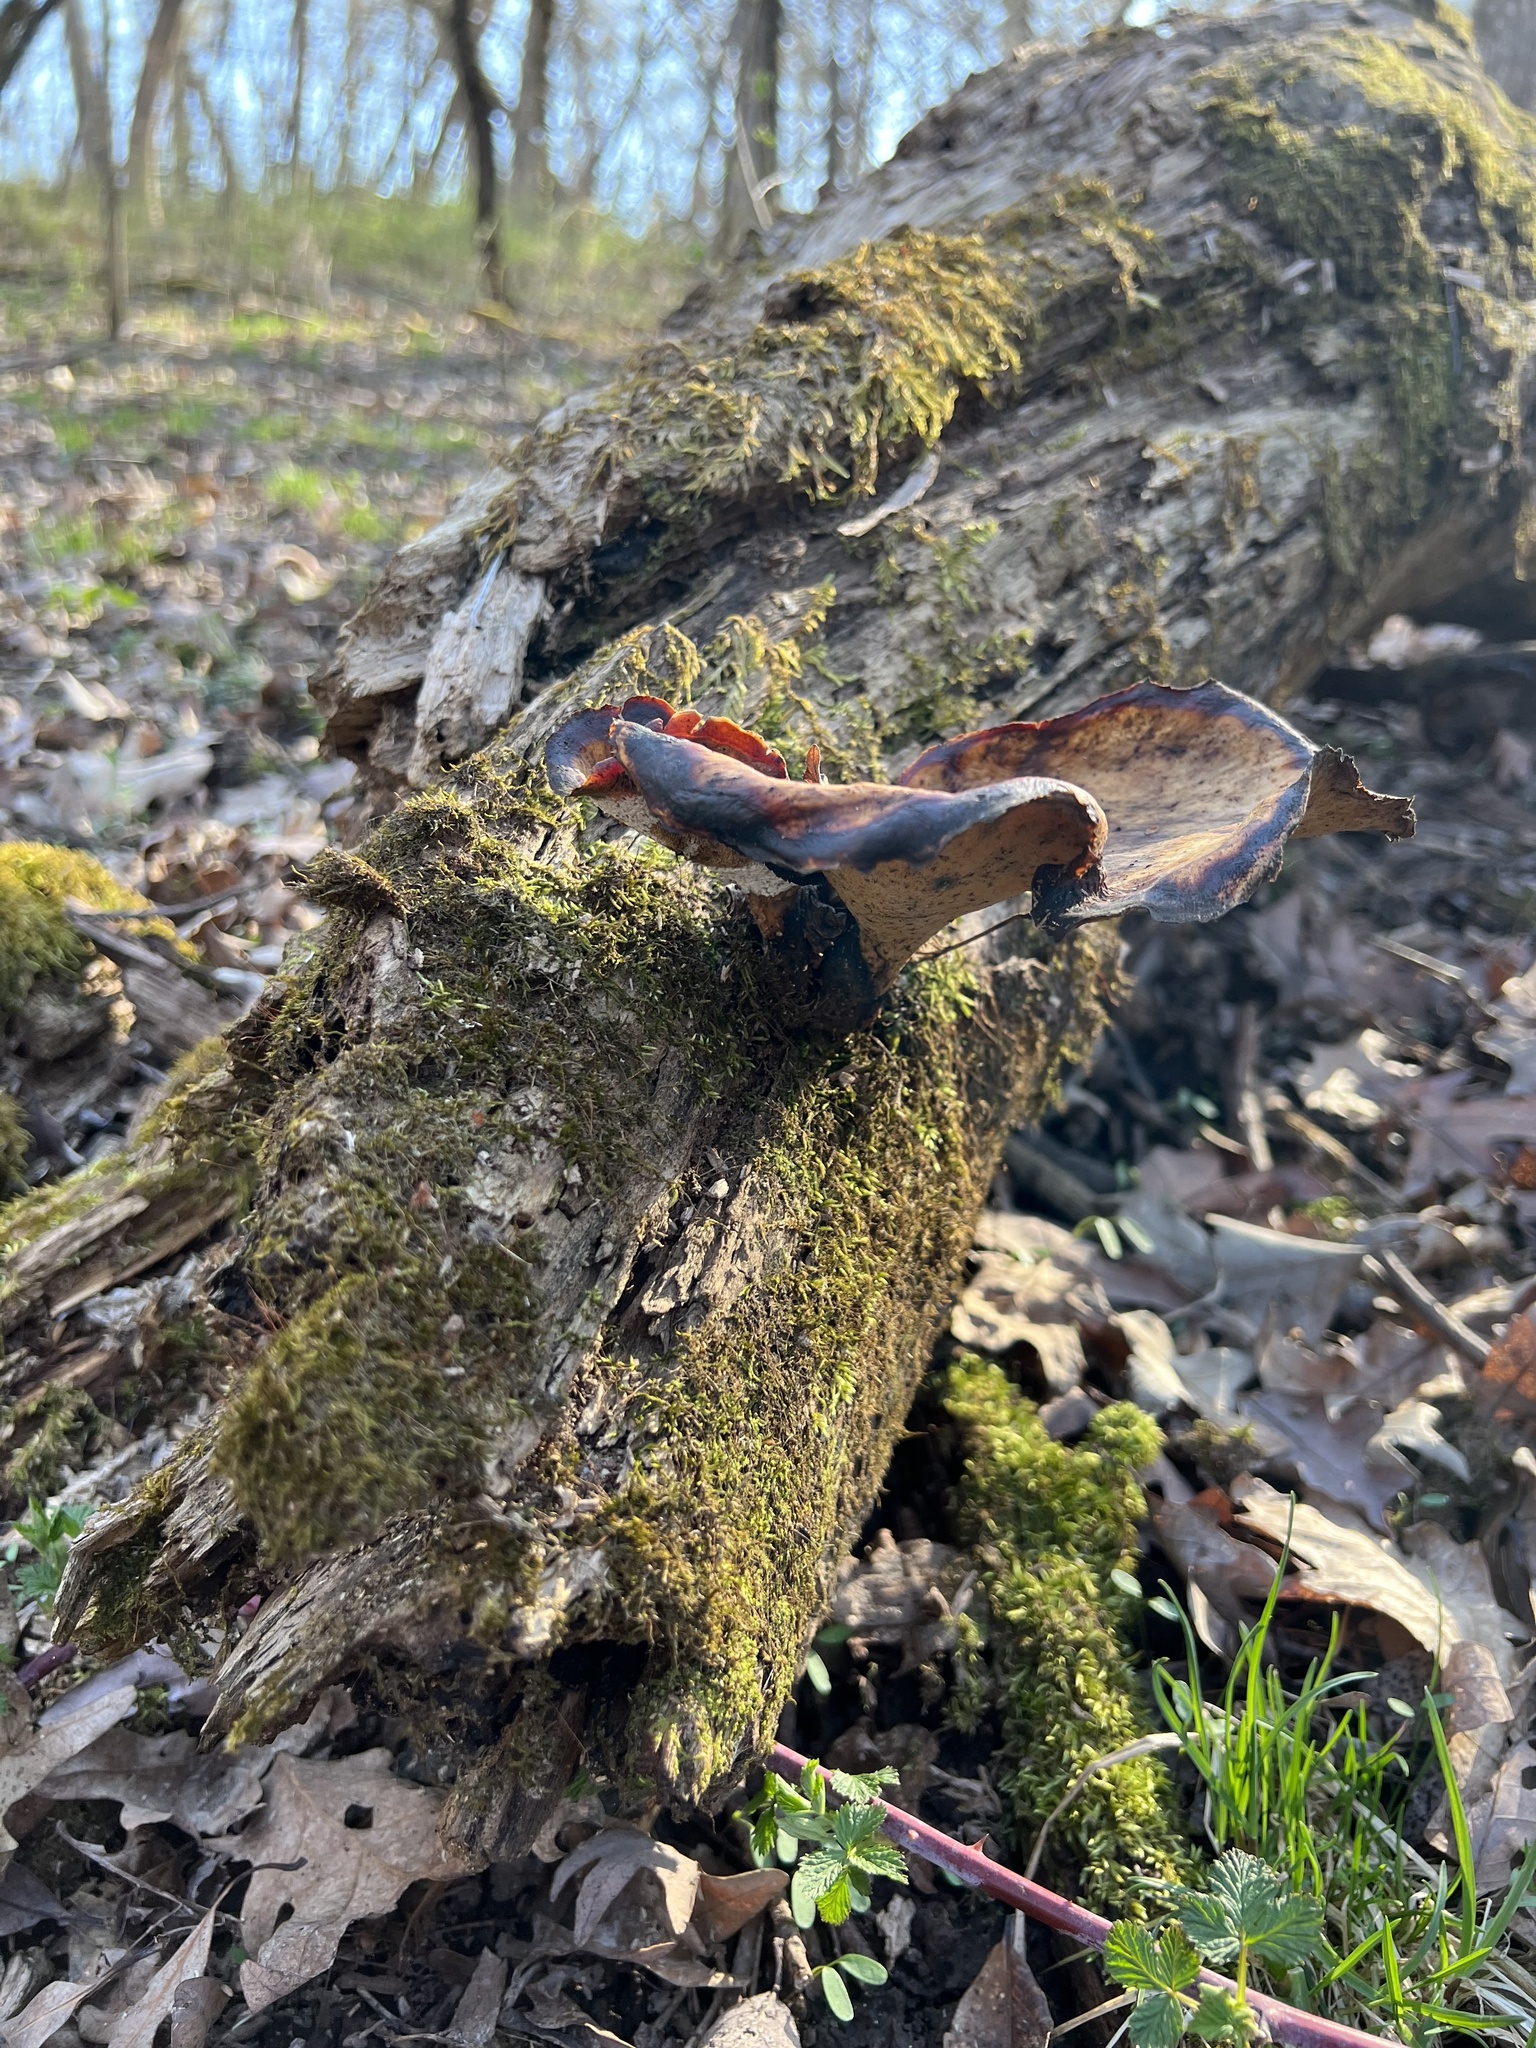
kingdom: Fungi
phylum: Basidiomycota
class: Agaricomycetes
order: Polyporales
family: Polyporaceae
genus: Picipes
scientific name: Picipes badius
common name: Bay polypore
